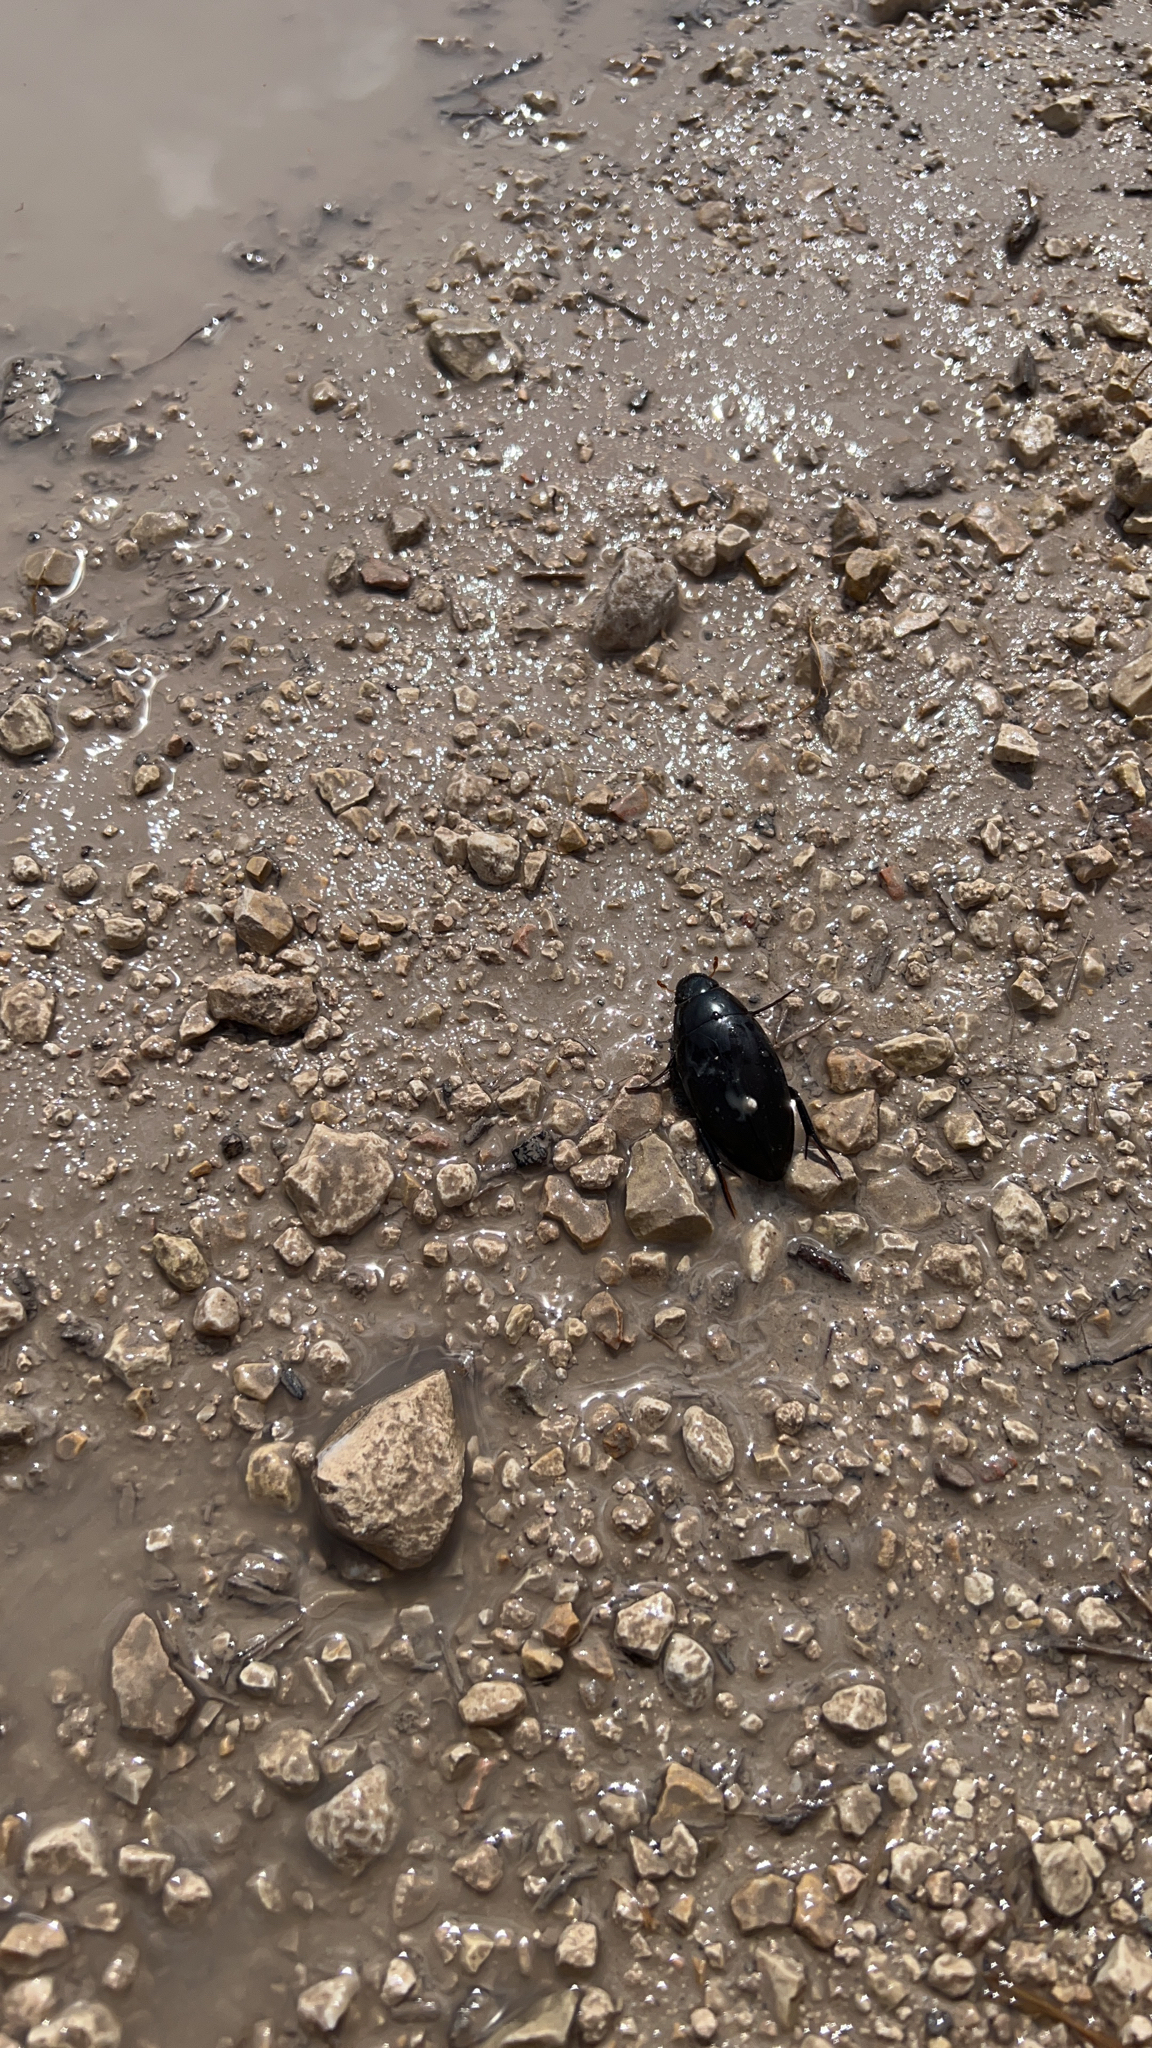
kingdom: Animalia
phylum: Arthropoda
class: Insecta
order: Coleoptera
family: Hydrophilidae
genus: Hydrophilus
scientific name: Hydrophilus
